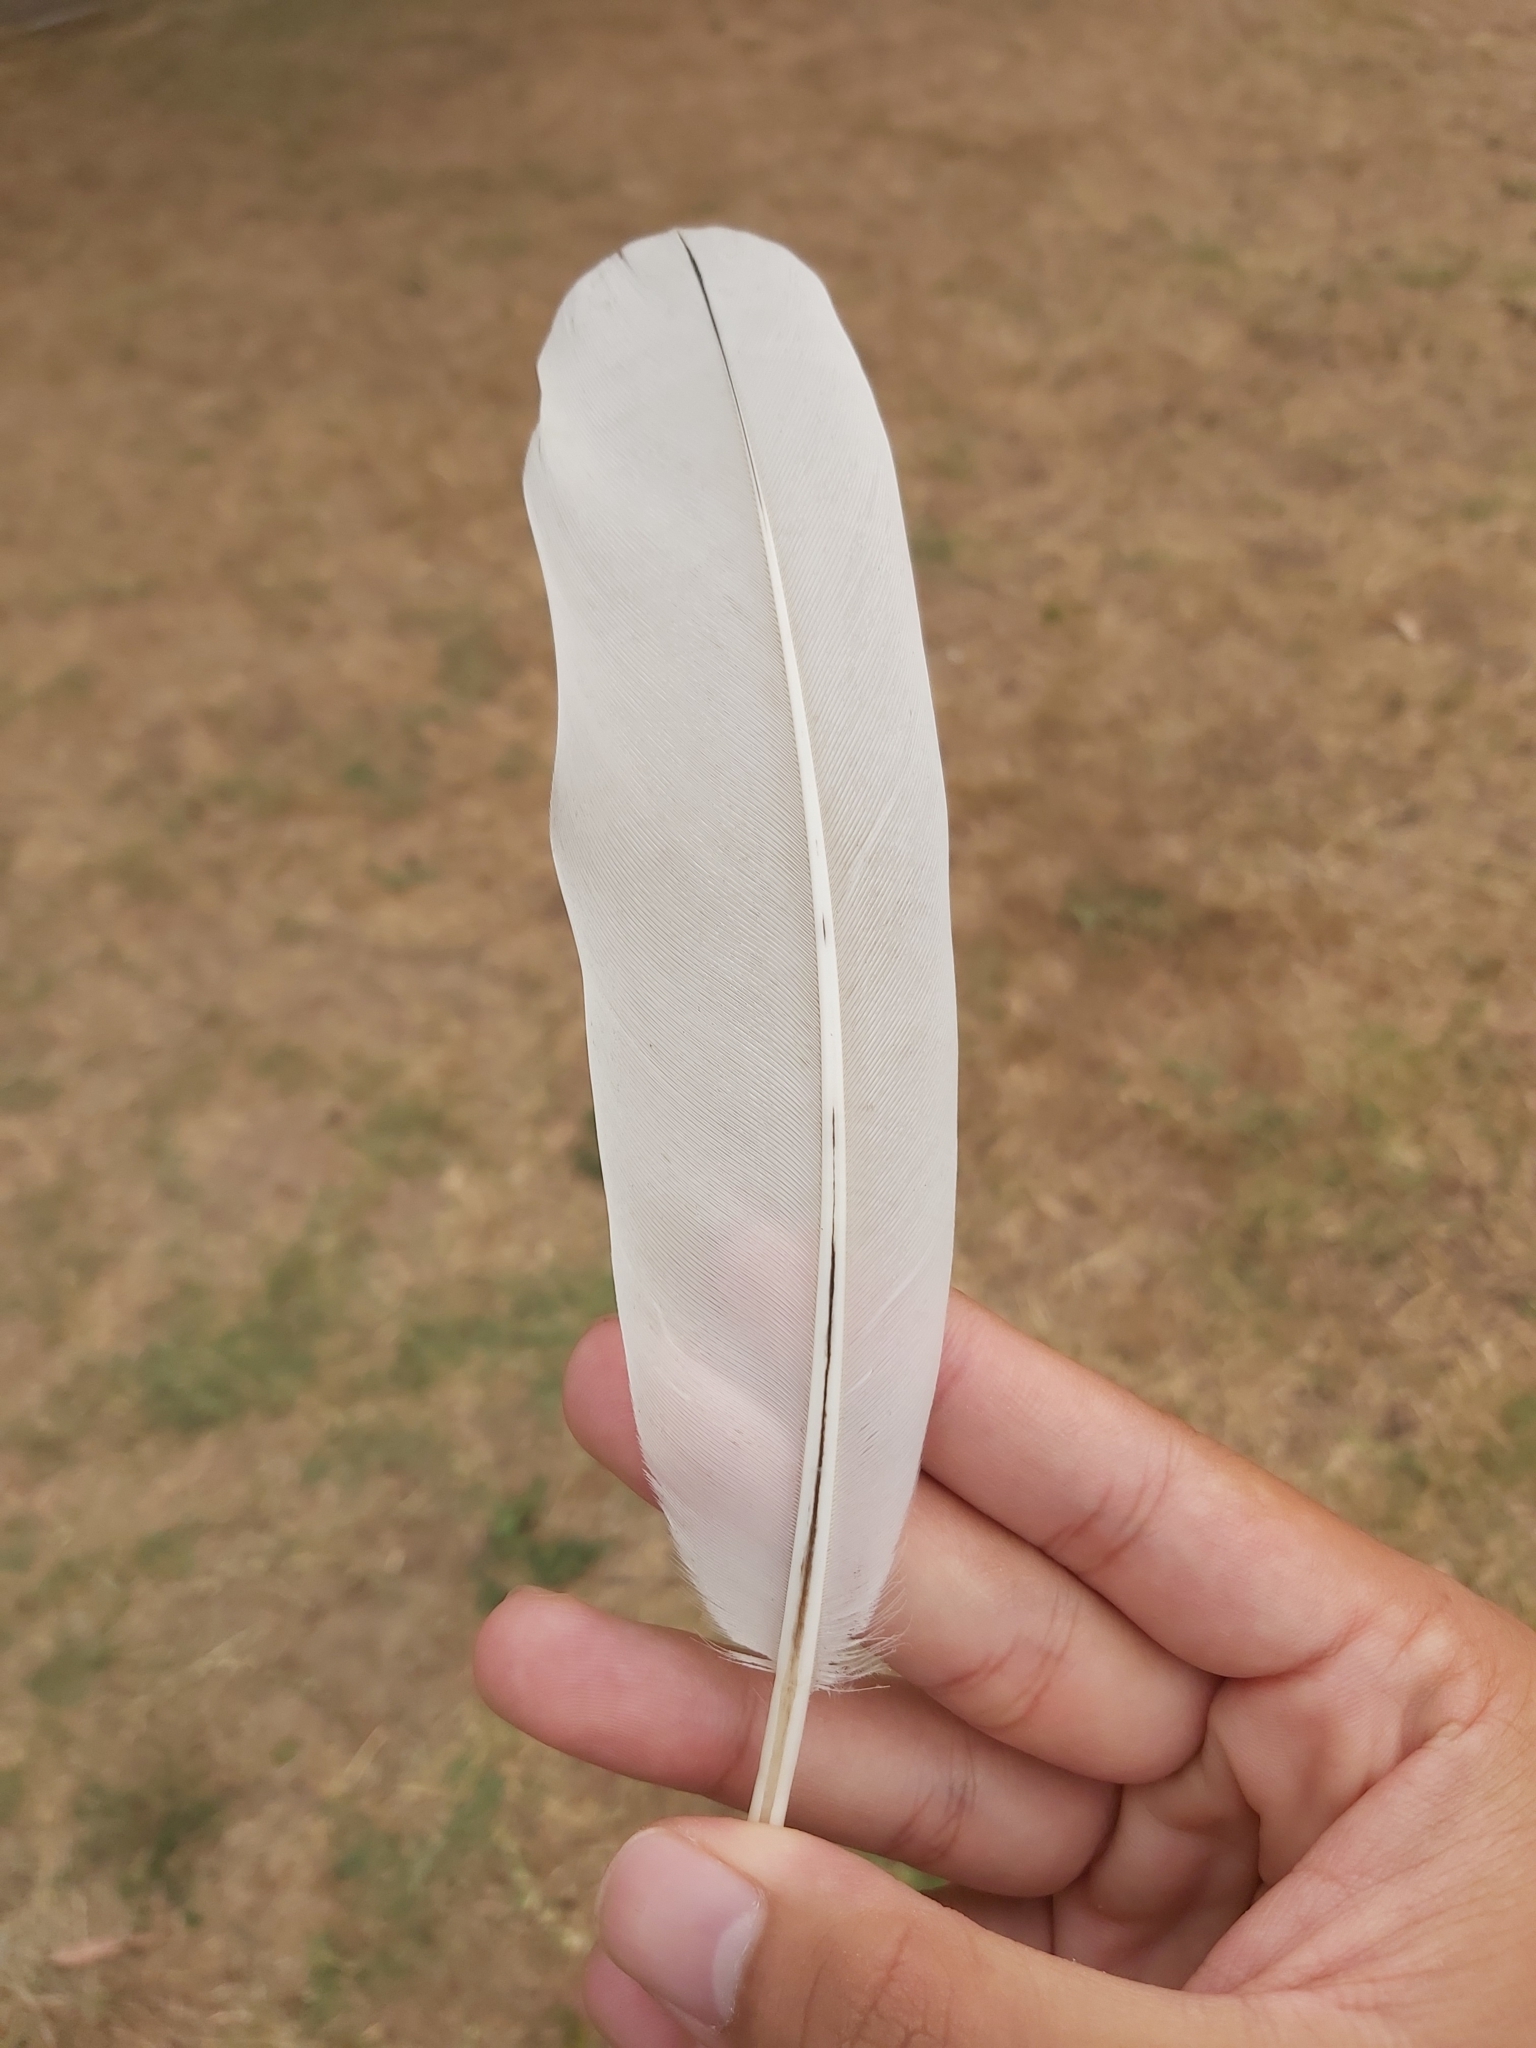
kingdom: Animalia
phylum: Chordata
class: Aves
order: Pelecaniformes
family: Threskiornithidae
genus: Threskiornis
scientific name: Threskiornis molucca
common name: Australian white ibis
